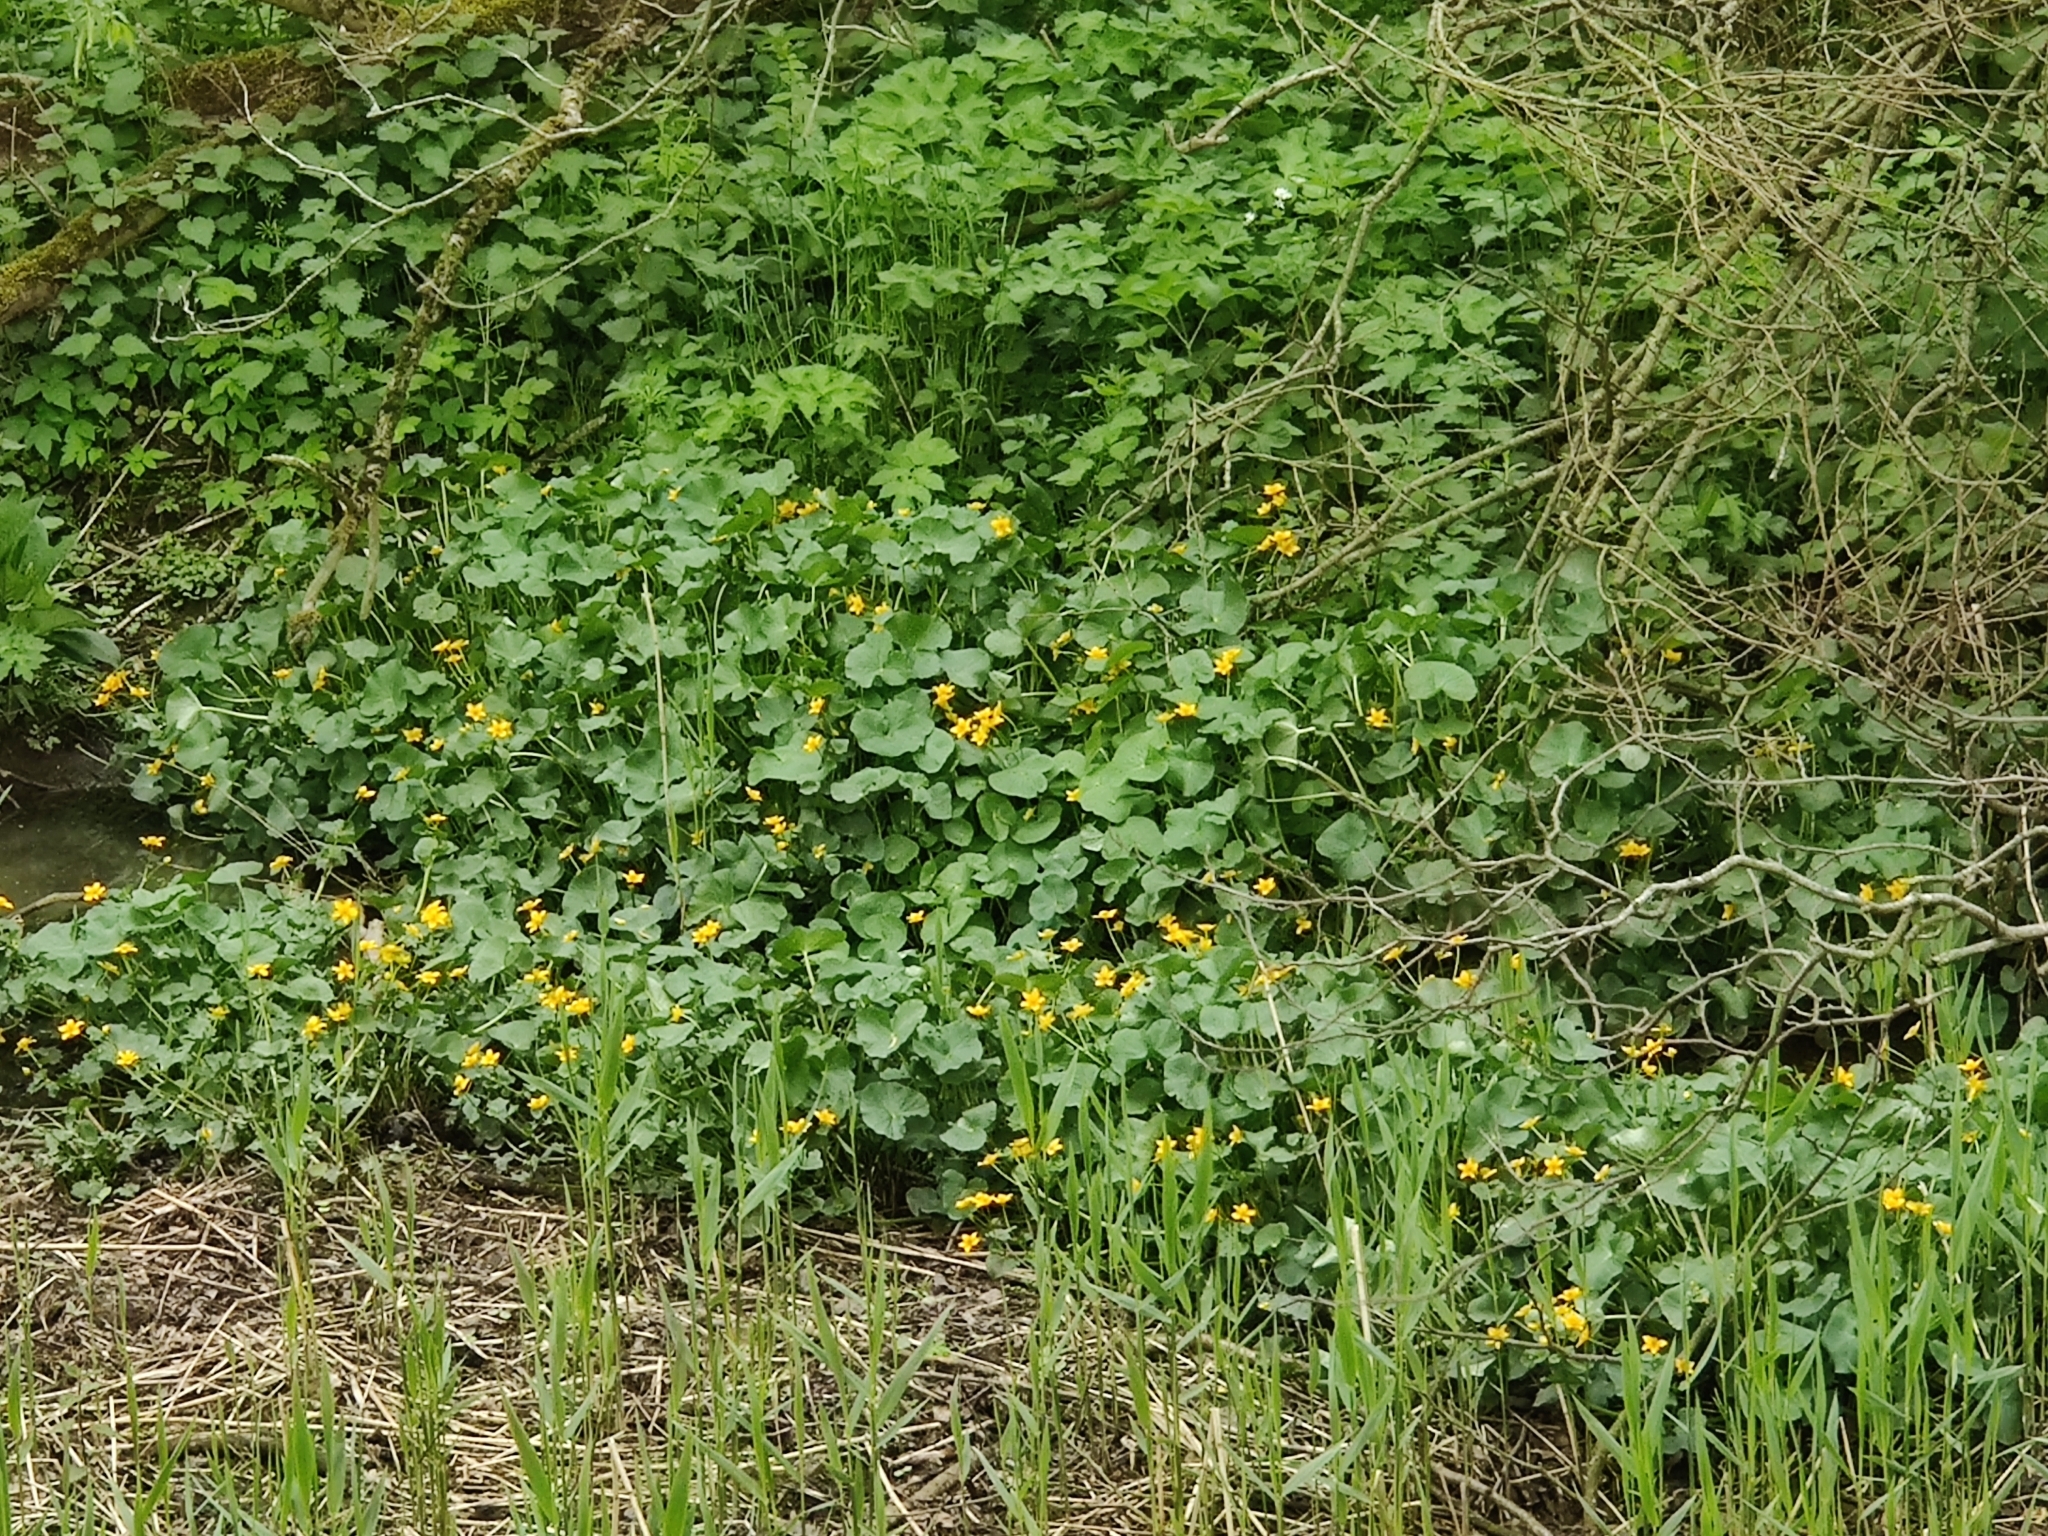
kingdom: Plantae
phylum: Tracheophyta
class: Magnoliopsida
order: Ranunculales
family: Ranunculaceae
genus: Caltha
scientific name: Caltha palustris
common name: Marsh marigold
